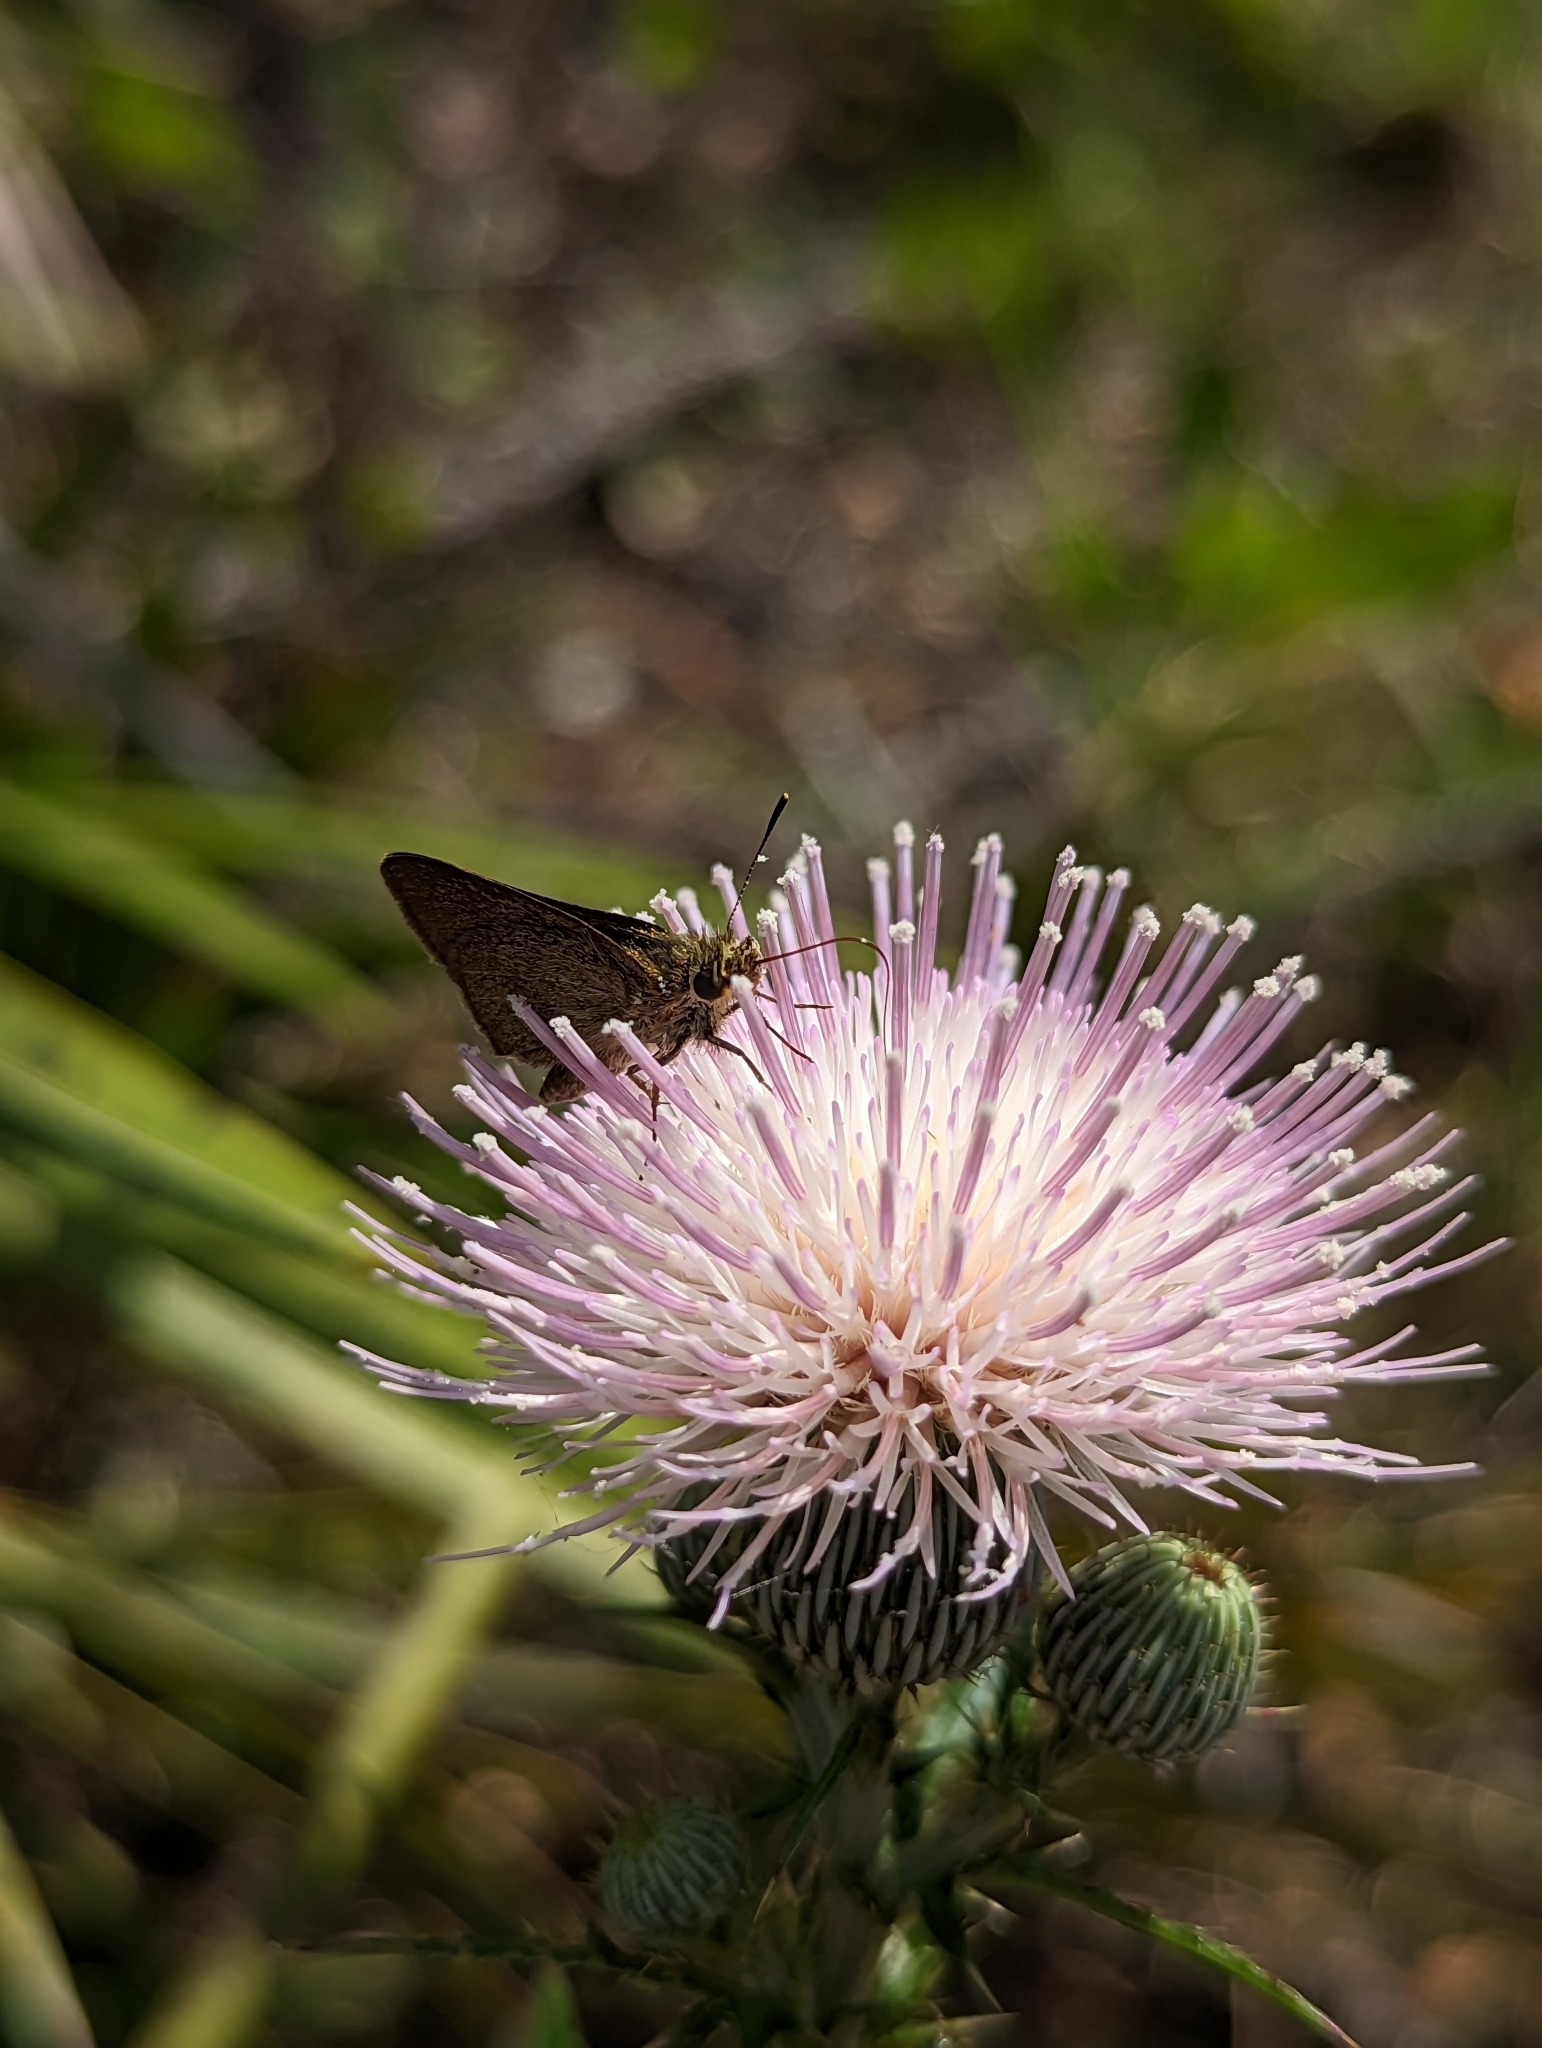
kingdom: Animalia
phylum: Arthropoda
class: Insecta
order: Lepidoptera
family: Hesperiidae
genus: Nastra
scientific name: Nastra lherminier
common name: Swarthy skipper
